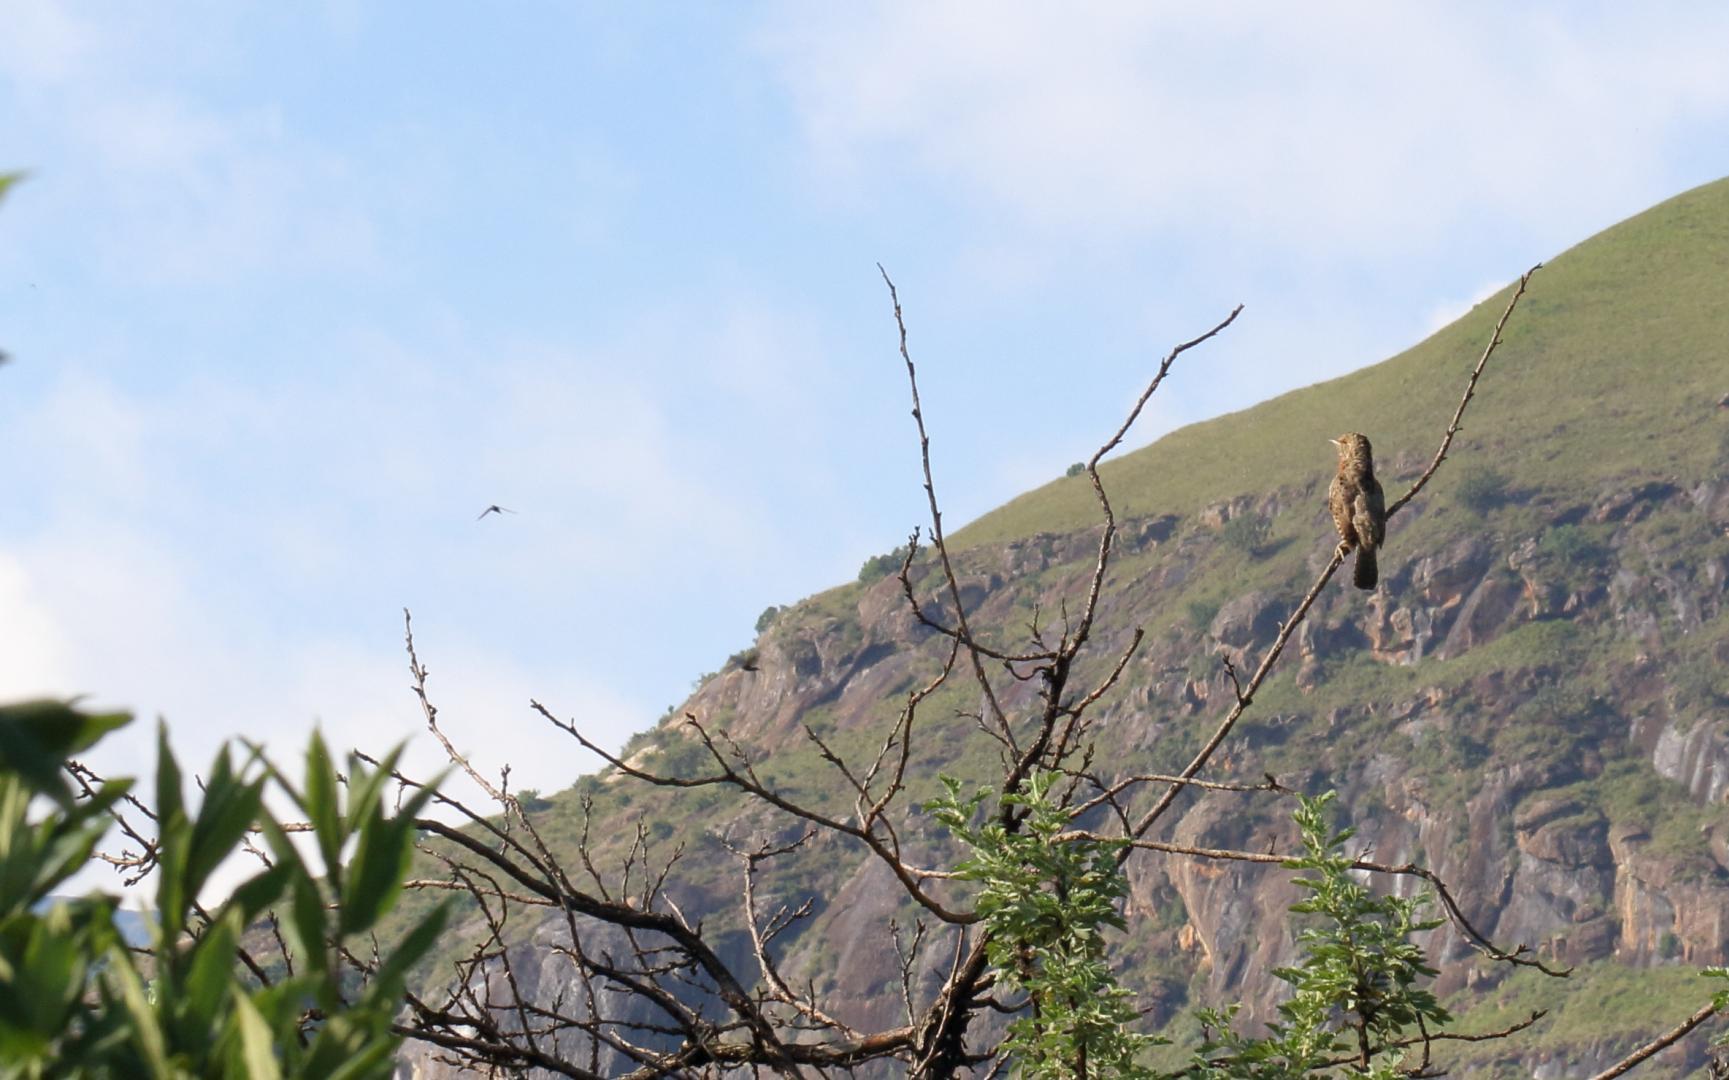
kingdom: Animalia
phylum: Chordata
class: Aves
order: Piciformes
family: Picidae
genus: Jynx
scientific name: Jynx ruficollis
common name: Red-throated wryneck
